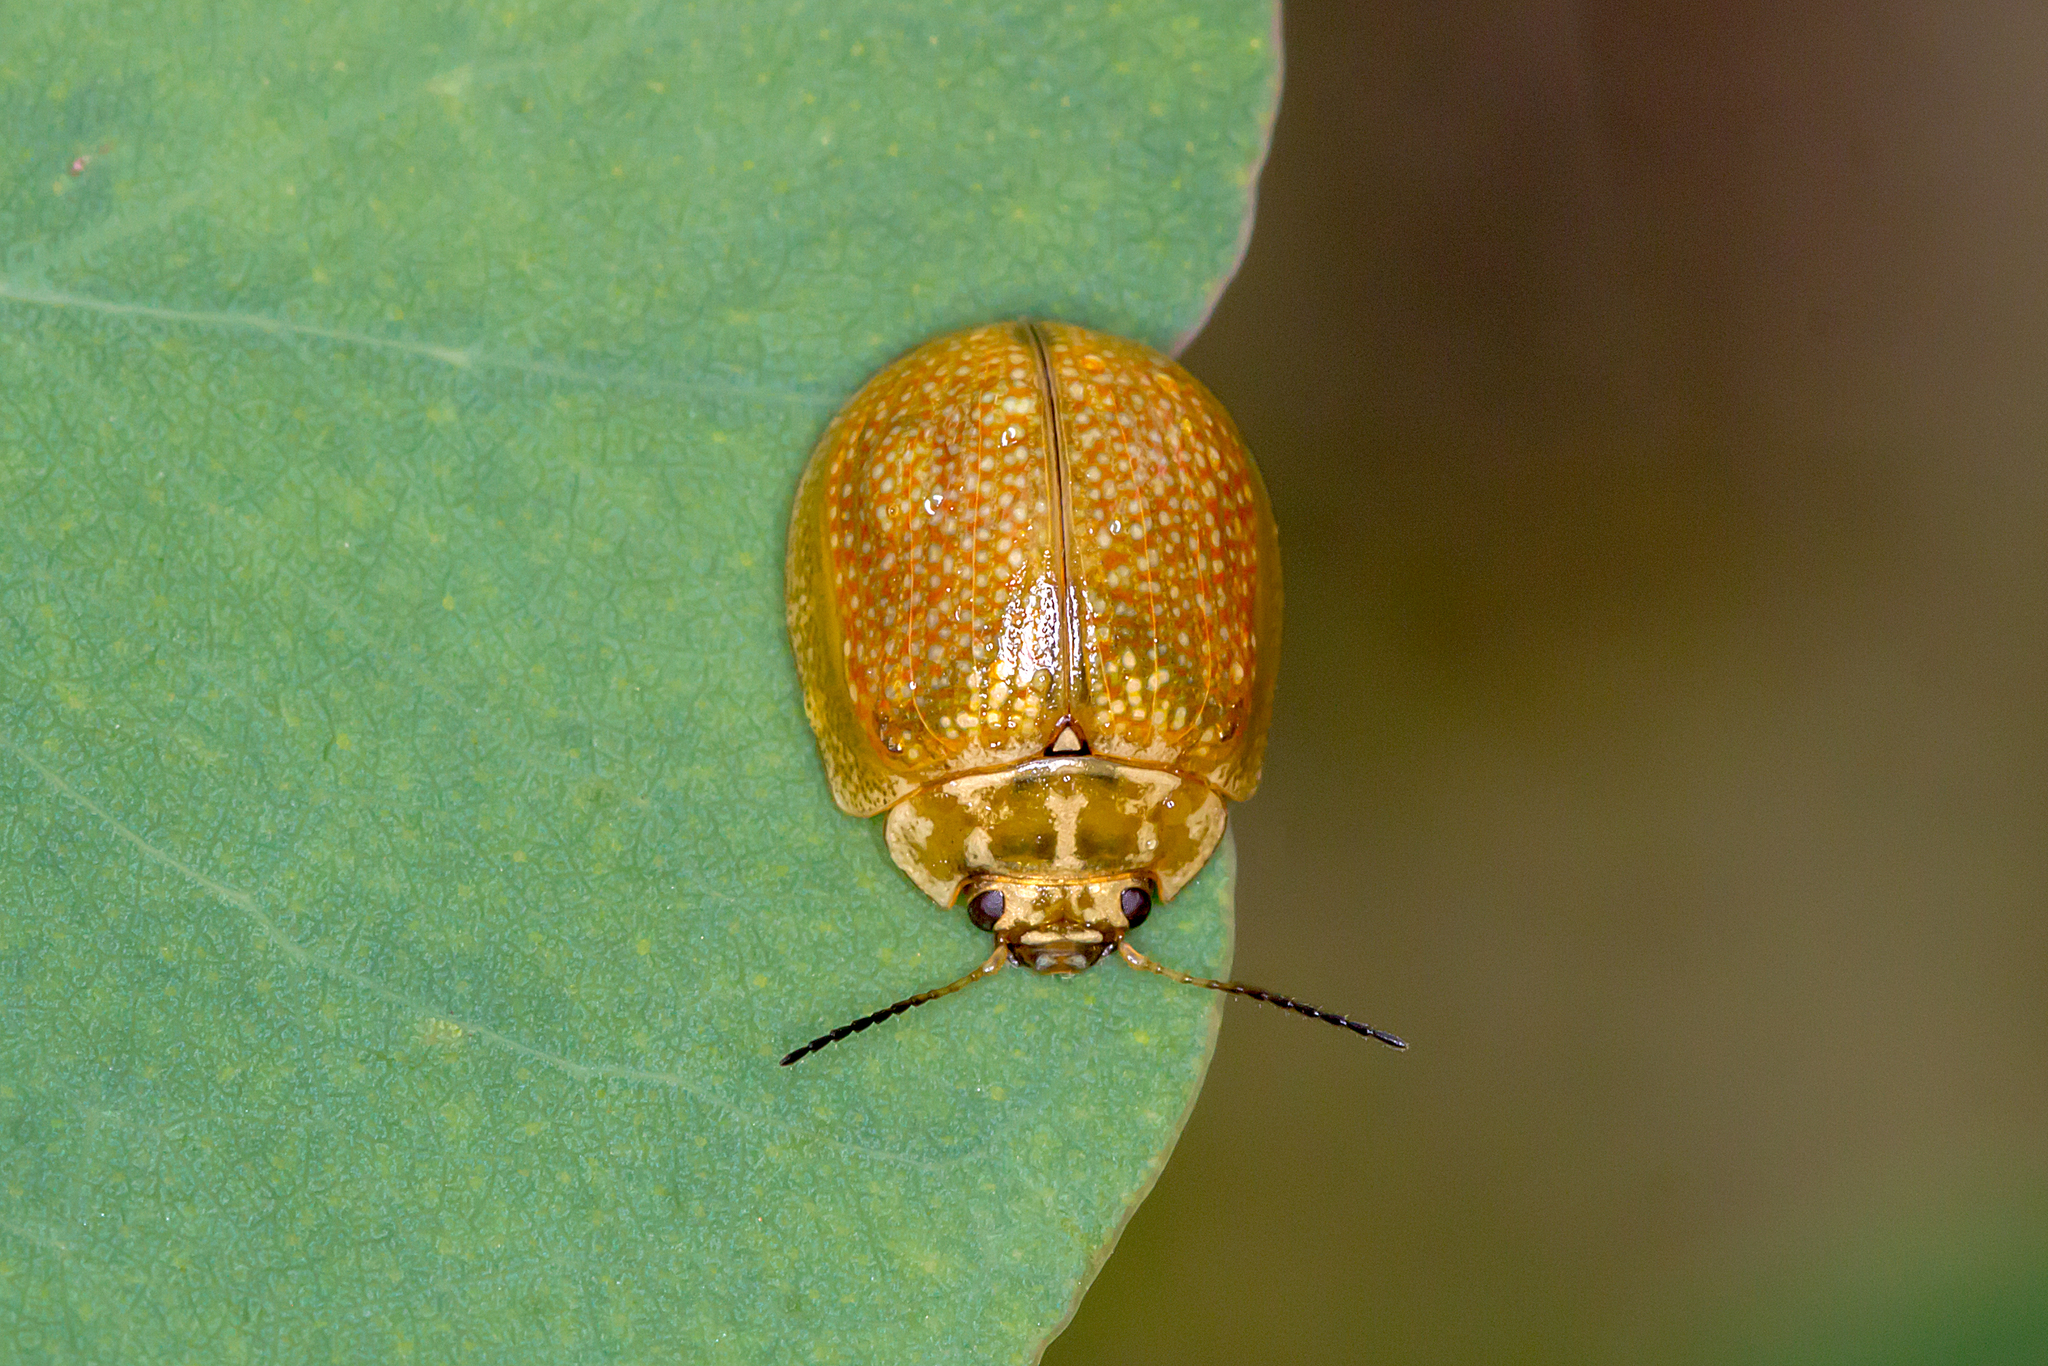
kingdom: Animalia
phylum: Arthropoda
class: Insecta
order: Coleoptera
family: Chrysomelidae
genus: Paropsisterna
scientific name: Paropsisterna cloelia
